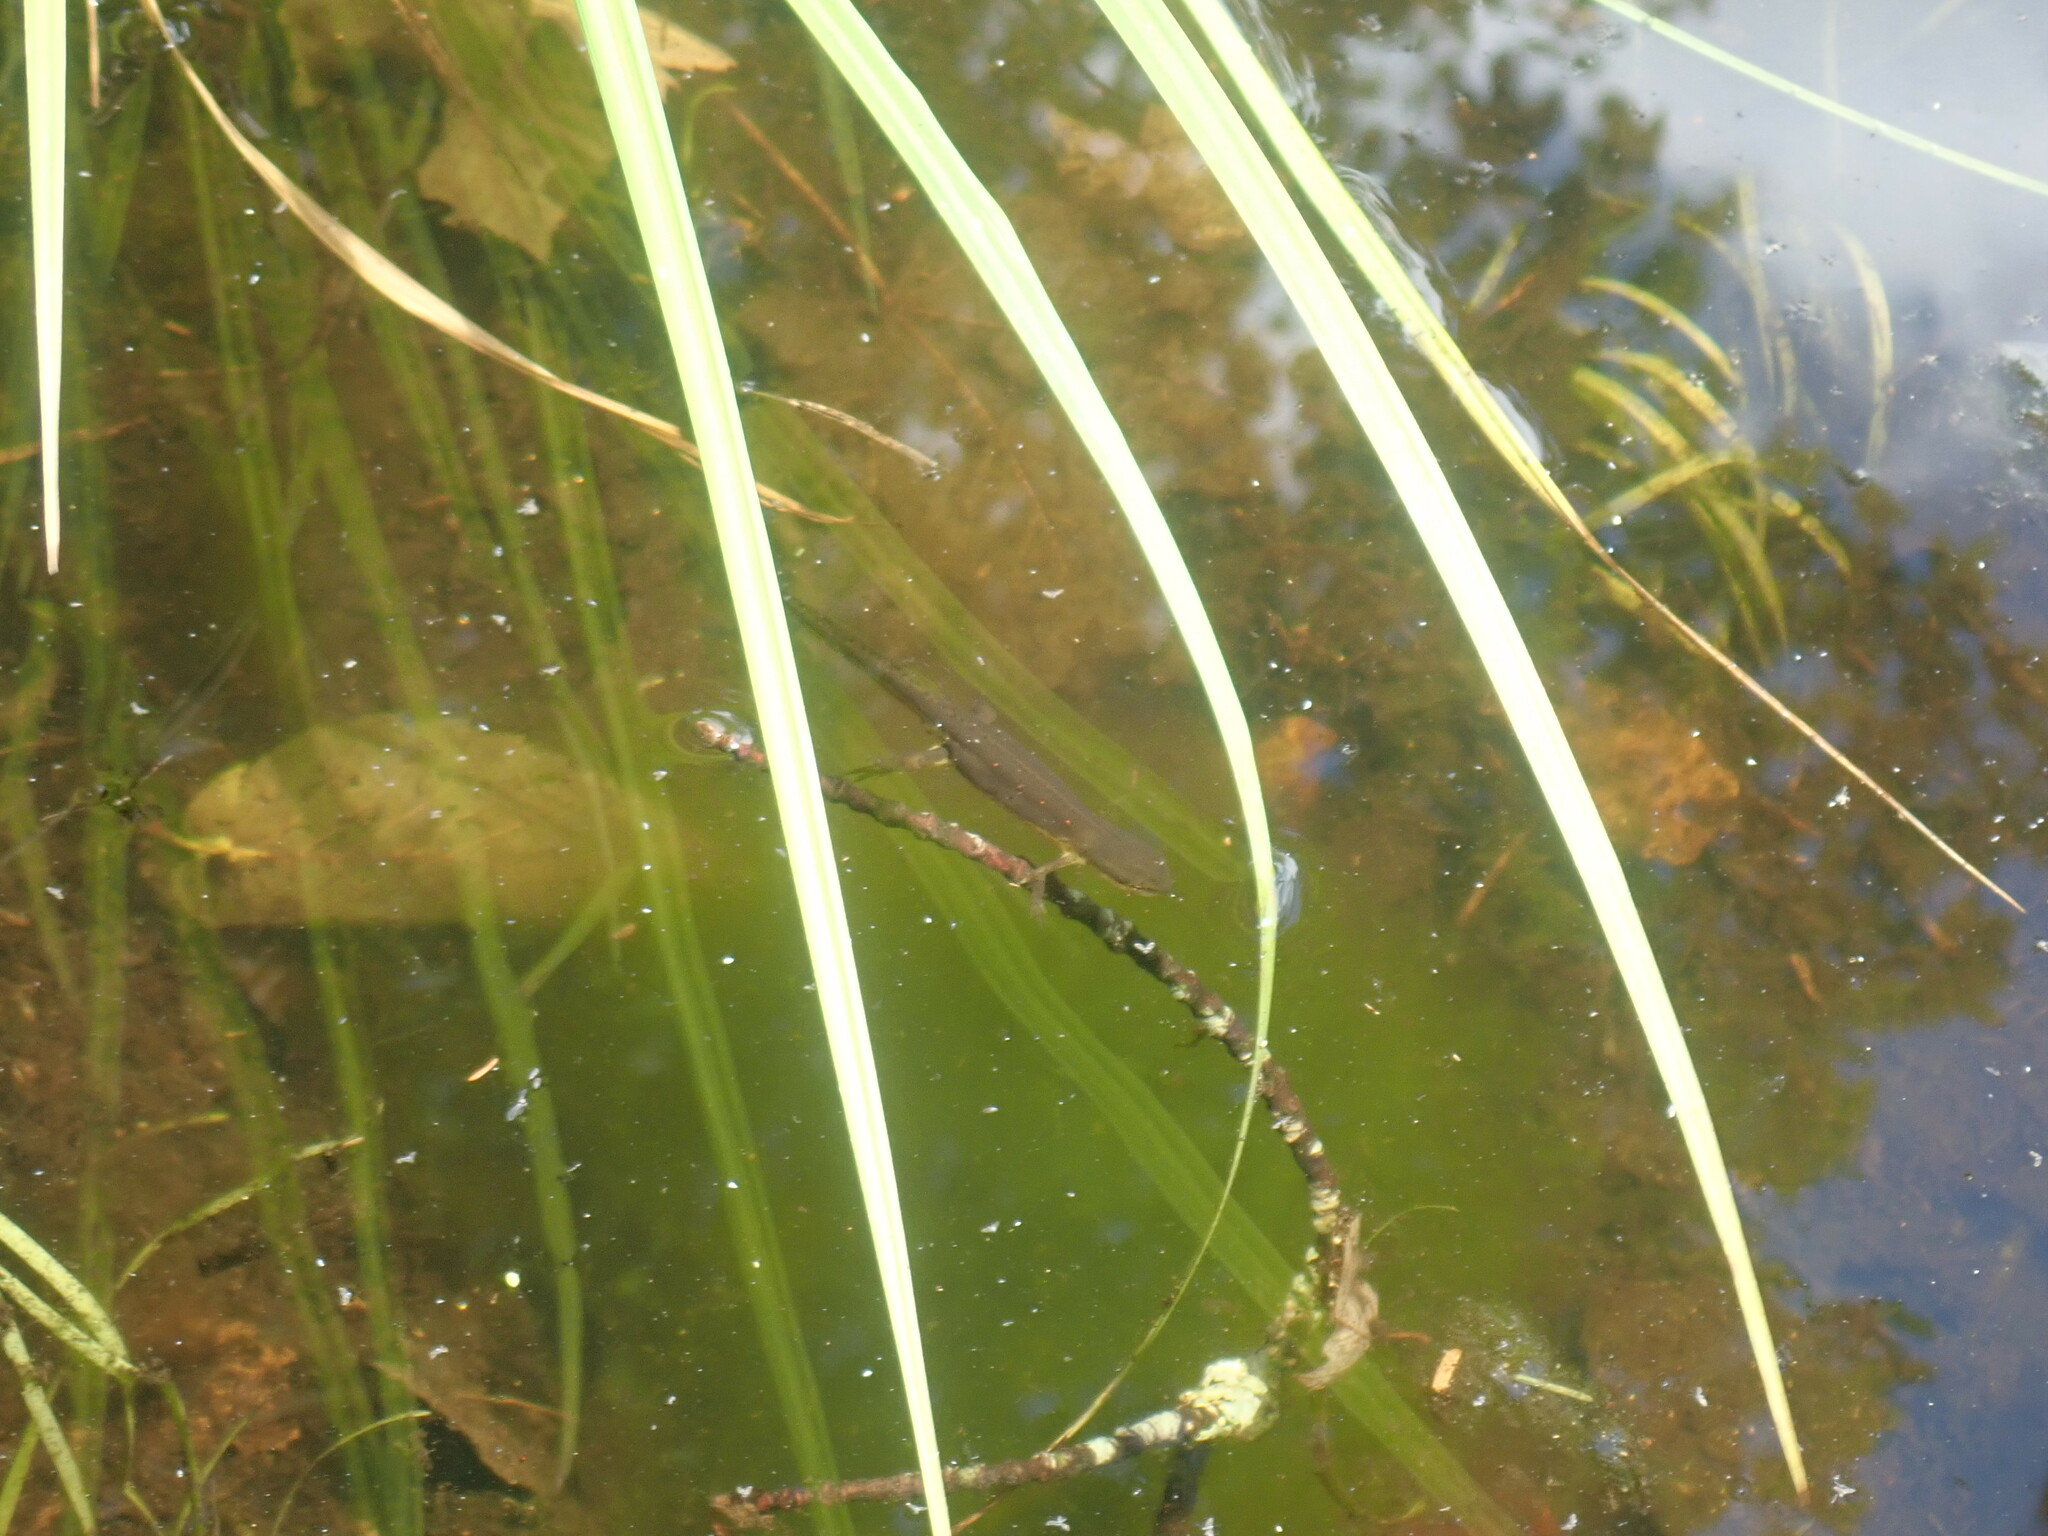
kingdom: Animalia
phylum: Chordata
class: Amphibia
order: Caudata
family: Salamandridae
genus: Notophthalmus
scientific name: Notophthalmus viridescens
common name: Eastern newt
